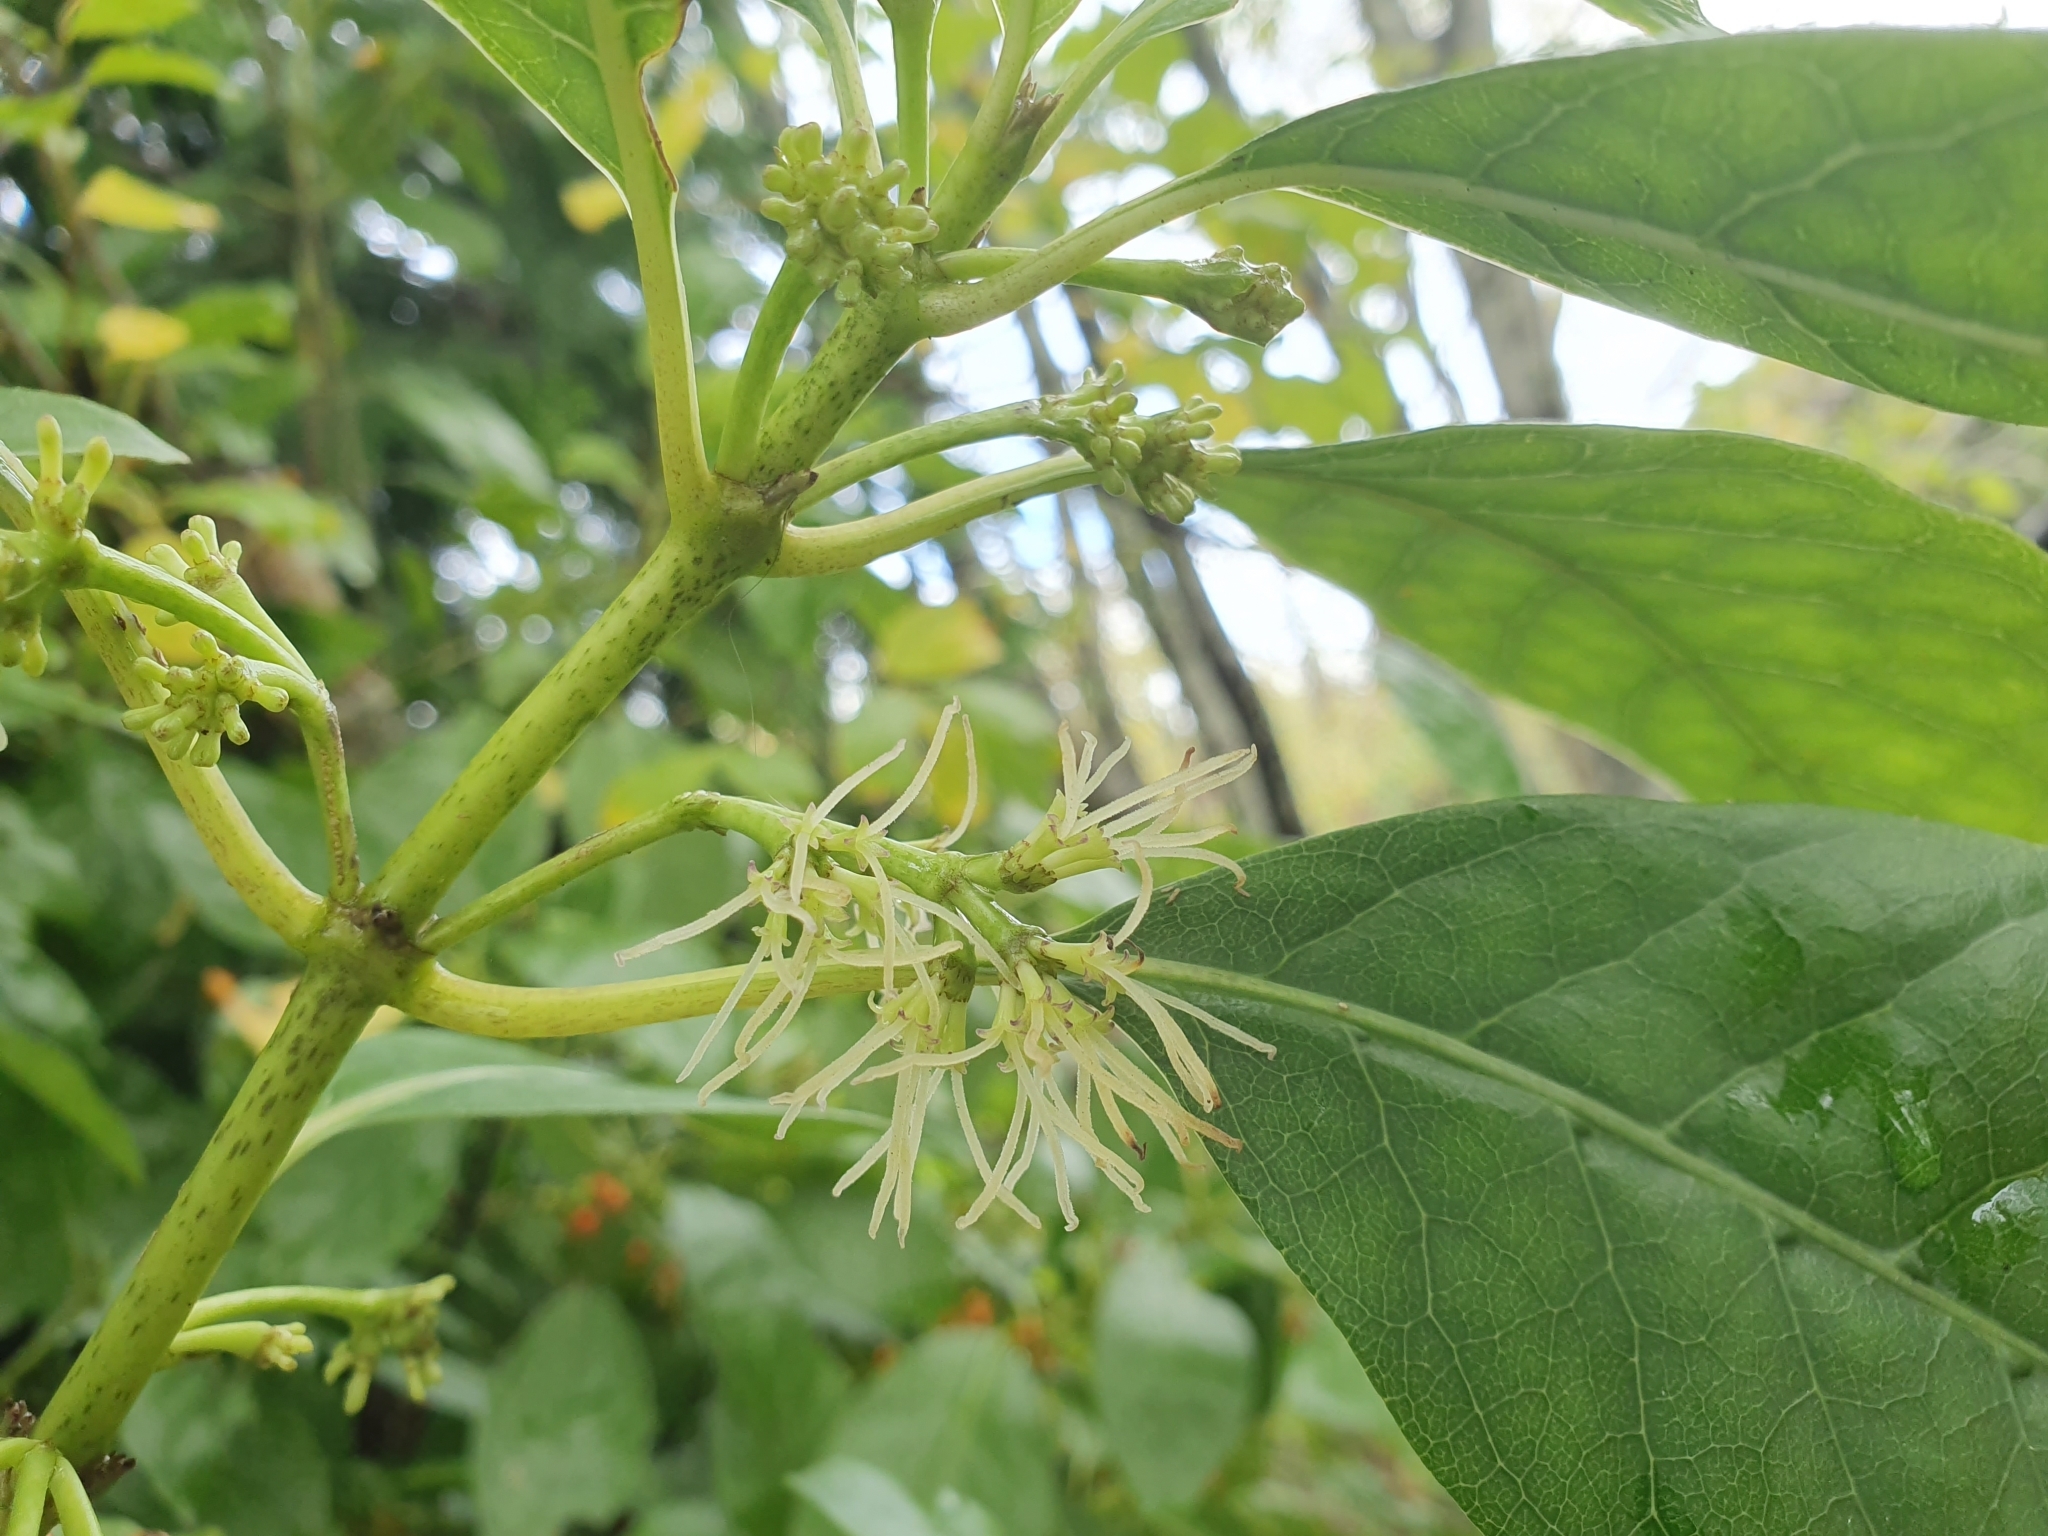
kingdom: Plantae
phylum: Tracheophyta
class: Magnoliopsida
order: Gentianales
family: Rubiaceae
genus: Coprosma
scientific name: Coprosma autumnalis
